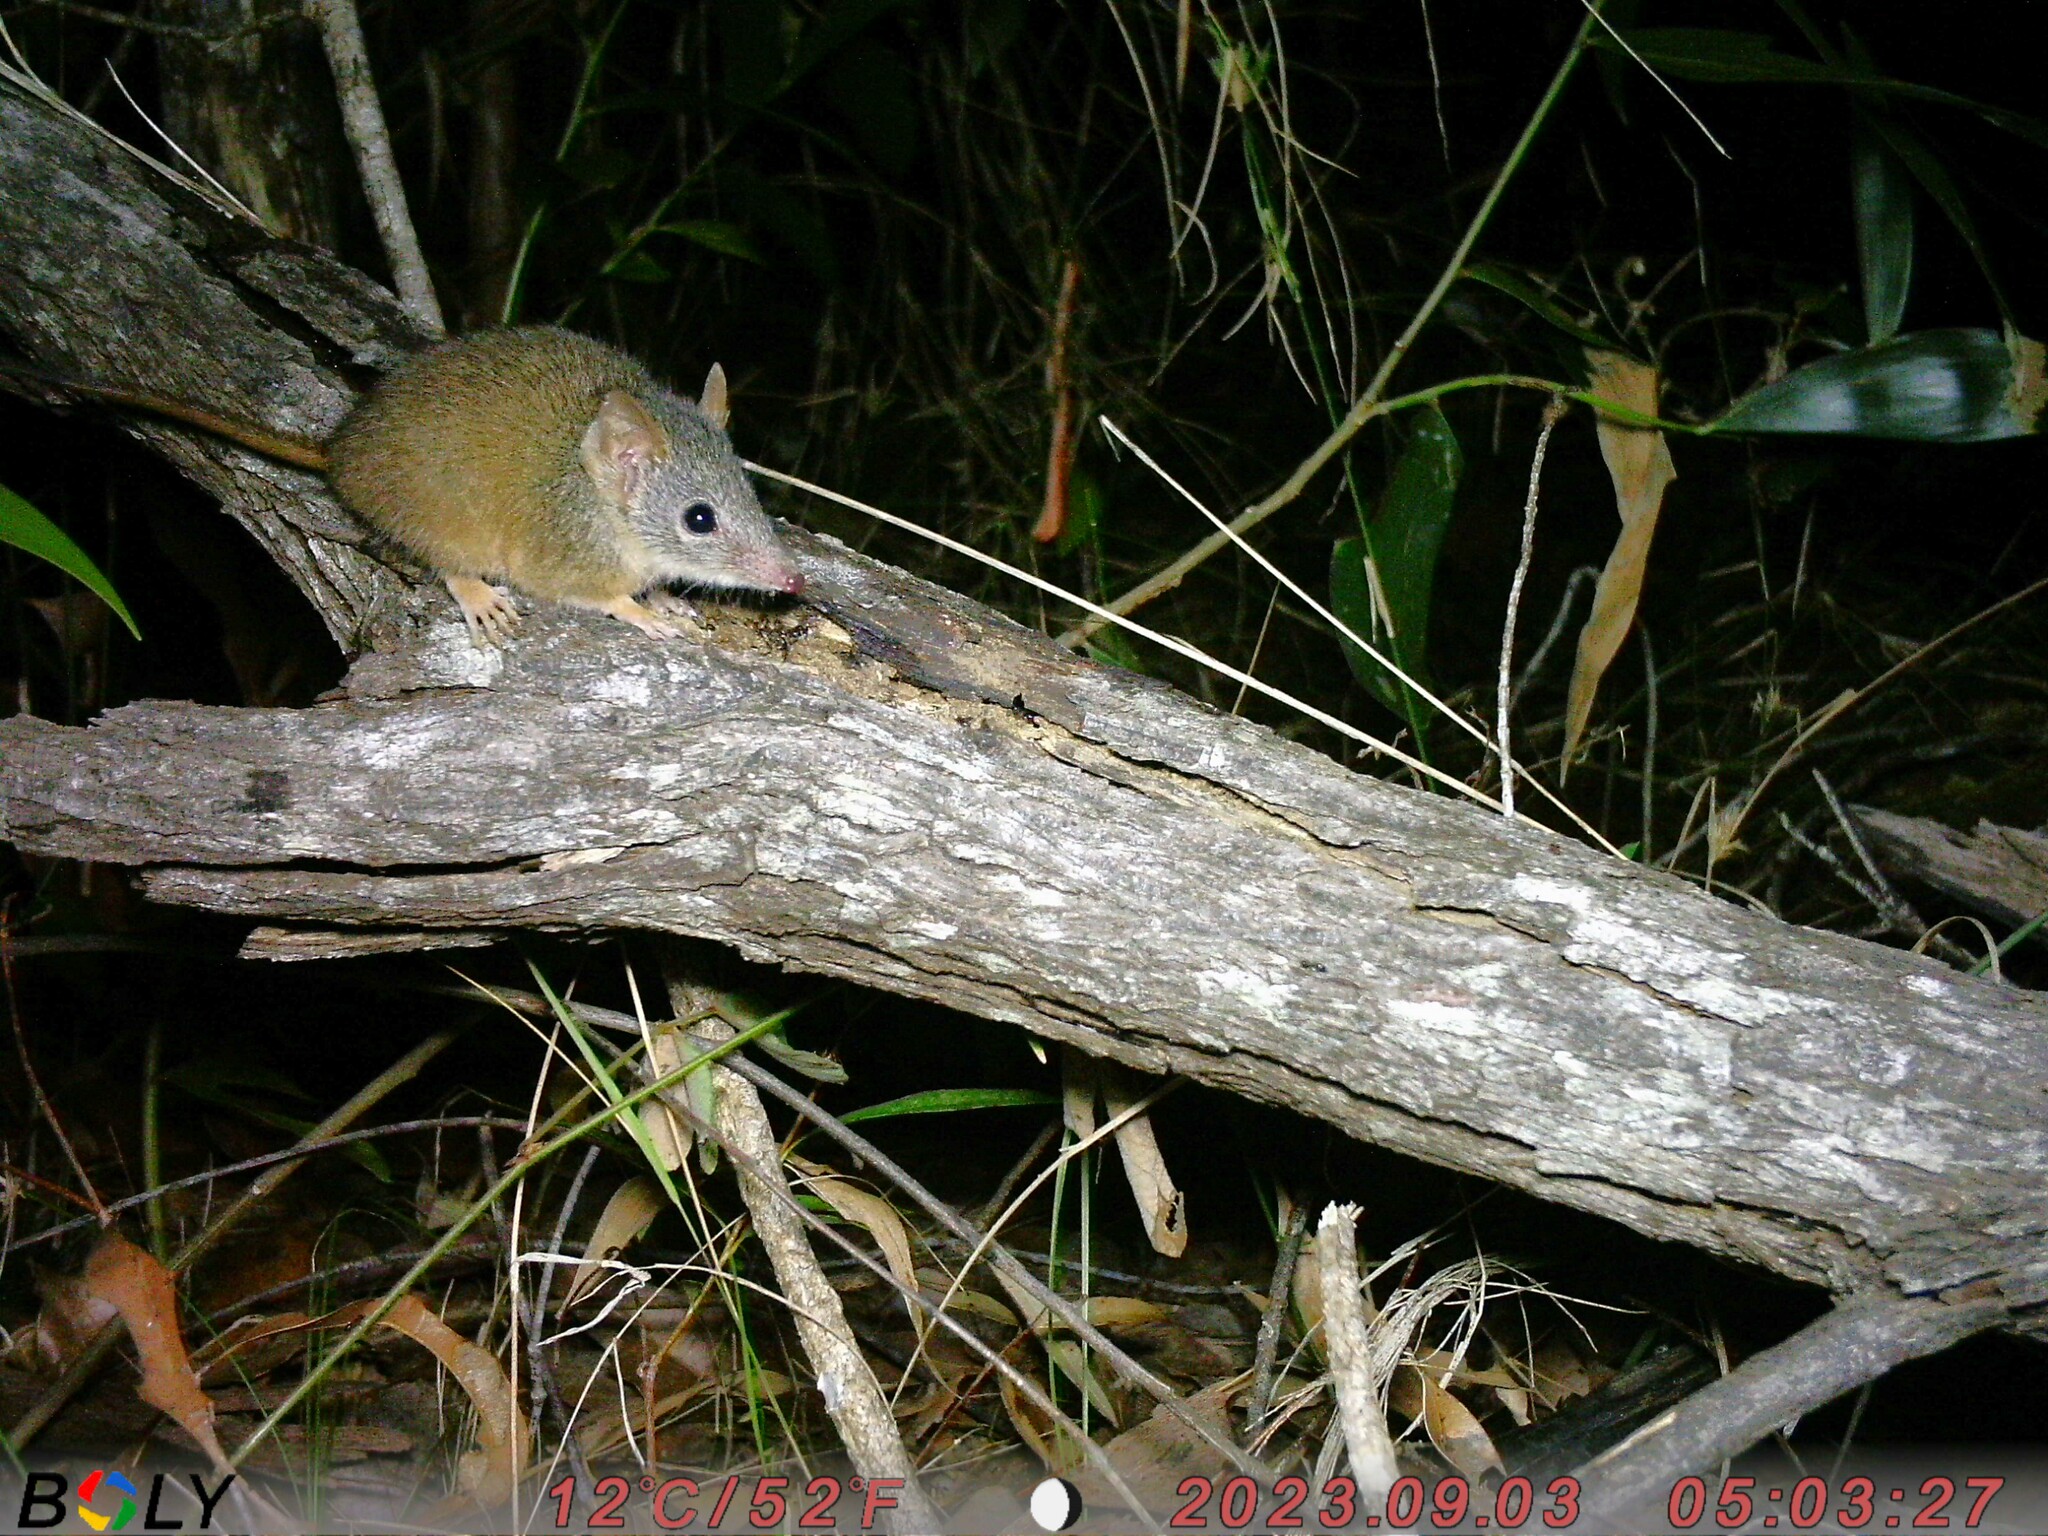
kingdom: Animalia
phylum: Chordata
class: Mammalia
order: Dasyuromorphia
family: Dasyuridae
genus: Antechinus
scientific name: Antechinus flavipes
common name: Yellow-footed antechinus
